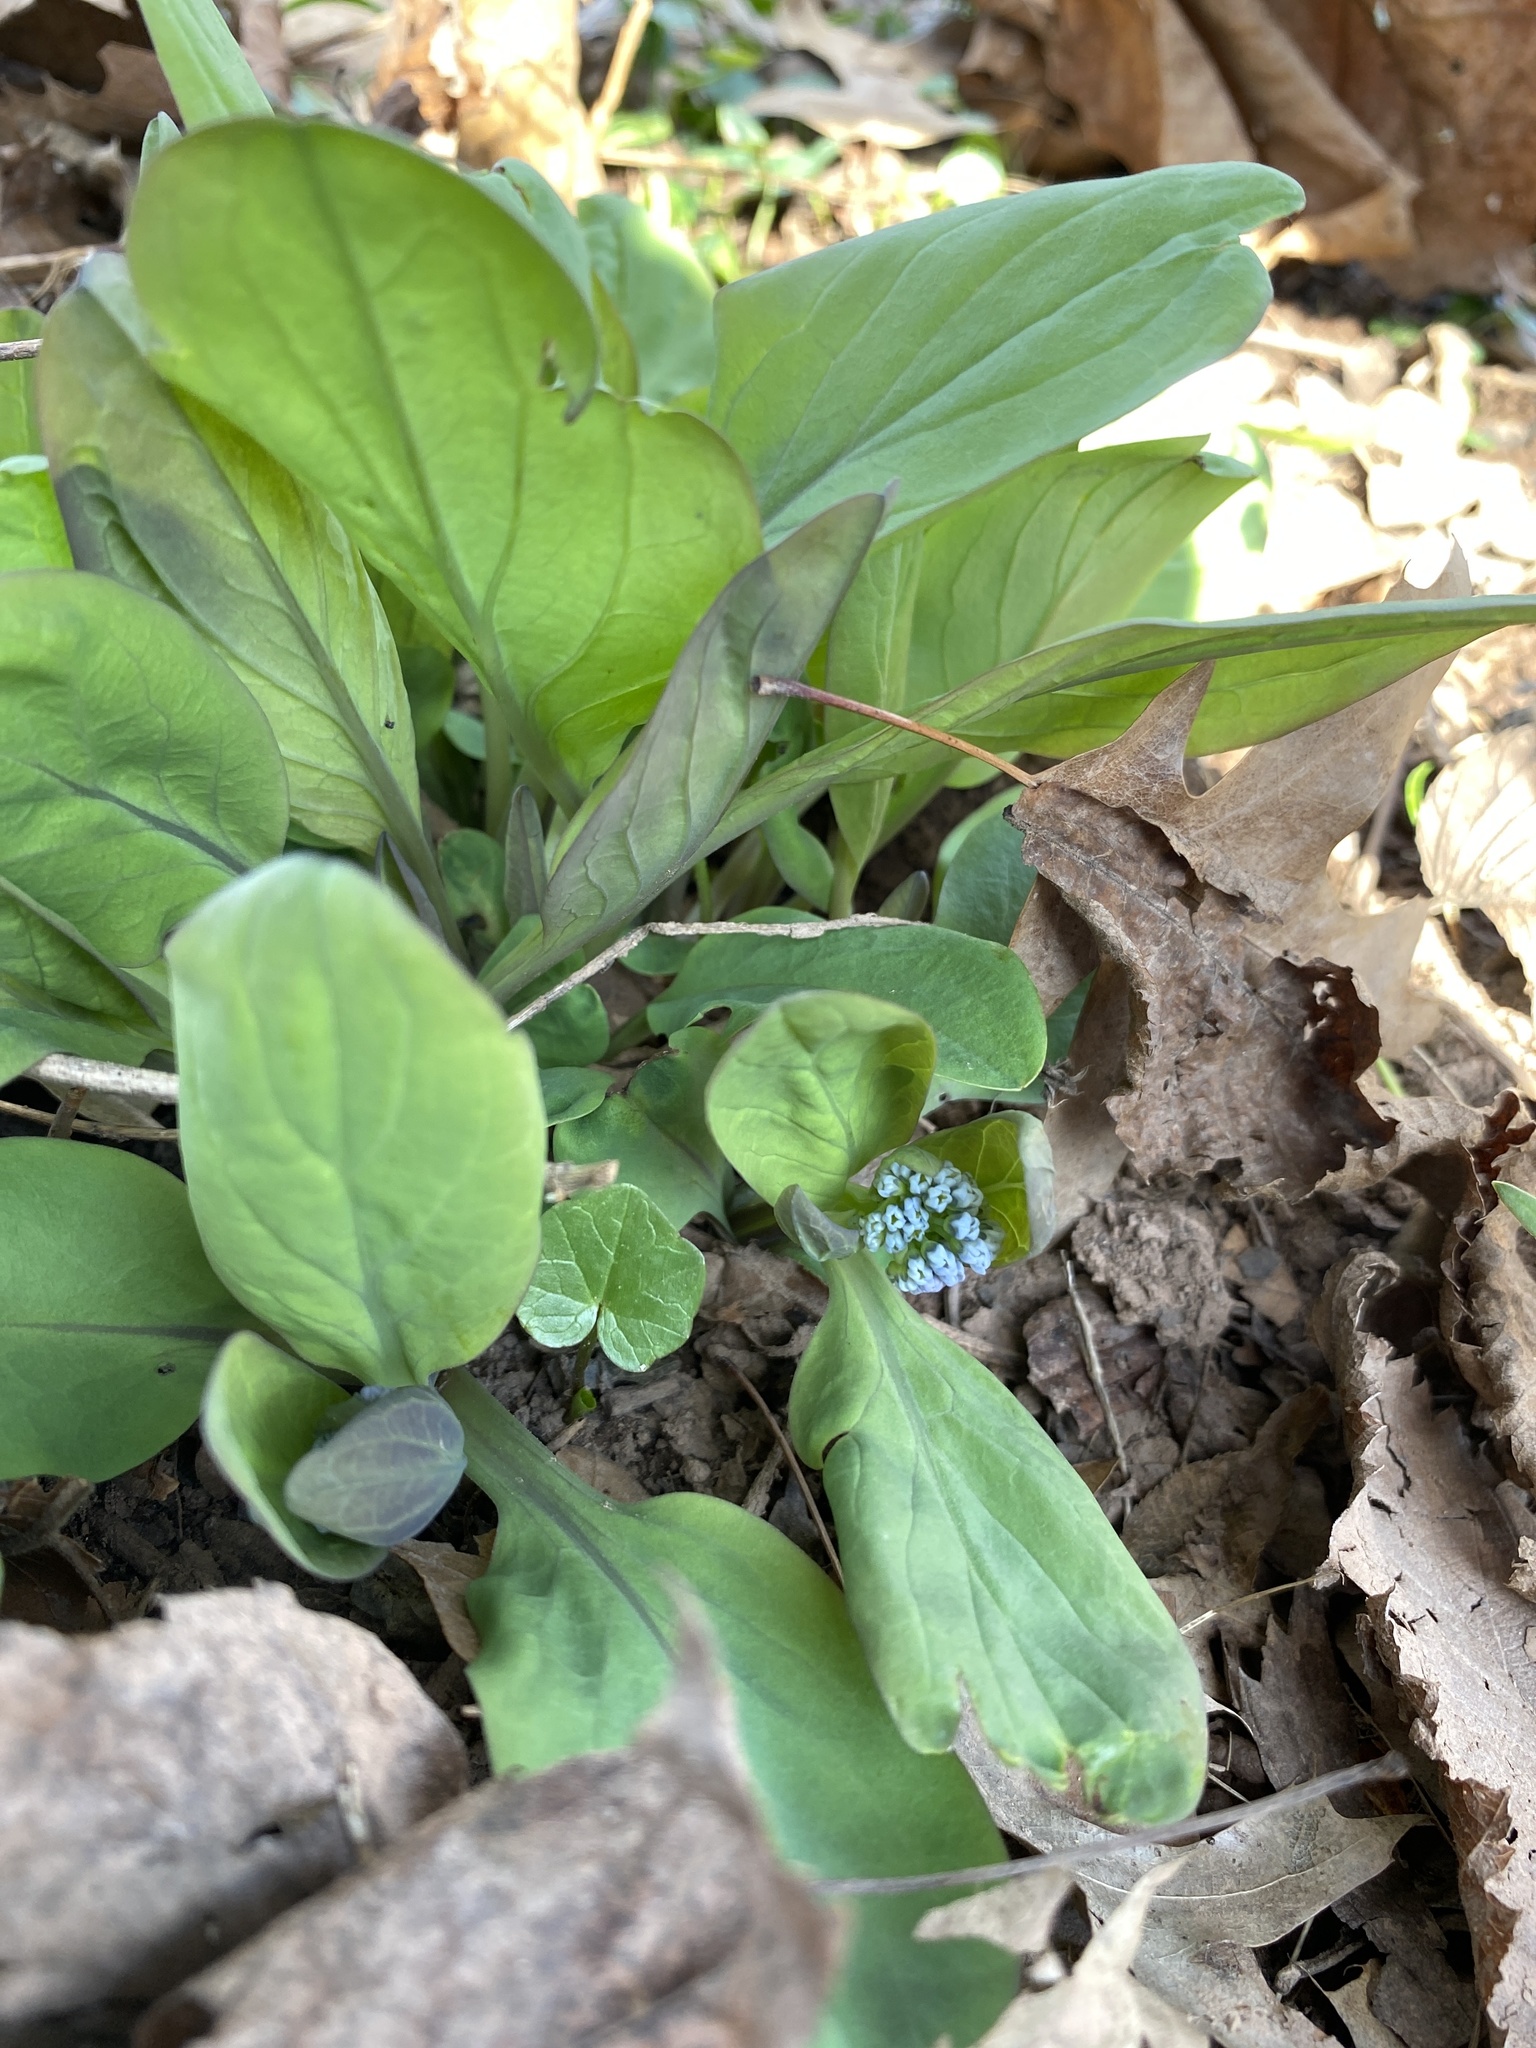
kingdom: Plantae
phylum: Tracheophyta
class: Magnoliopsida
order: Boraginales
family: Boraginaceae
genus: Mertensia
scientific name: Mertensia virginica
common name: Virginia bluebells
